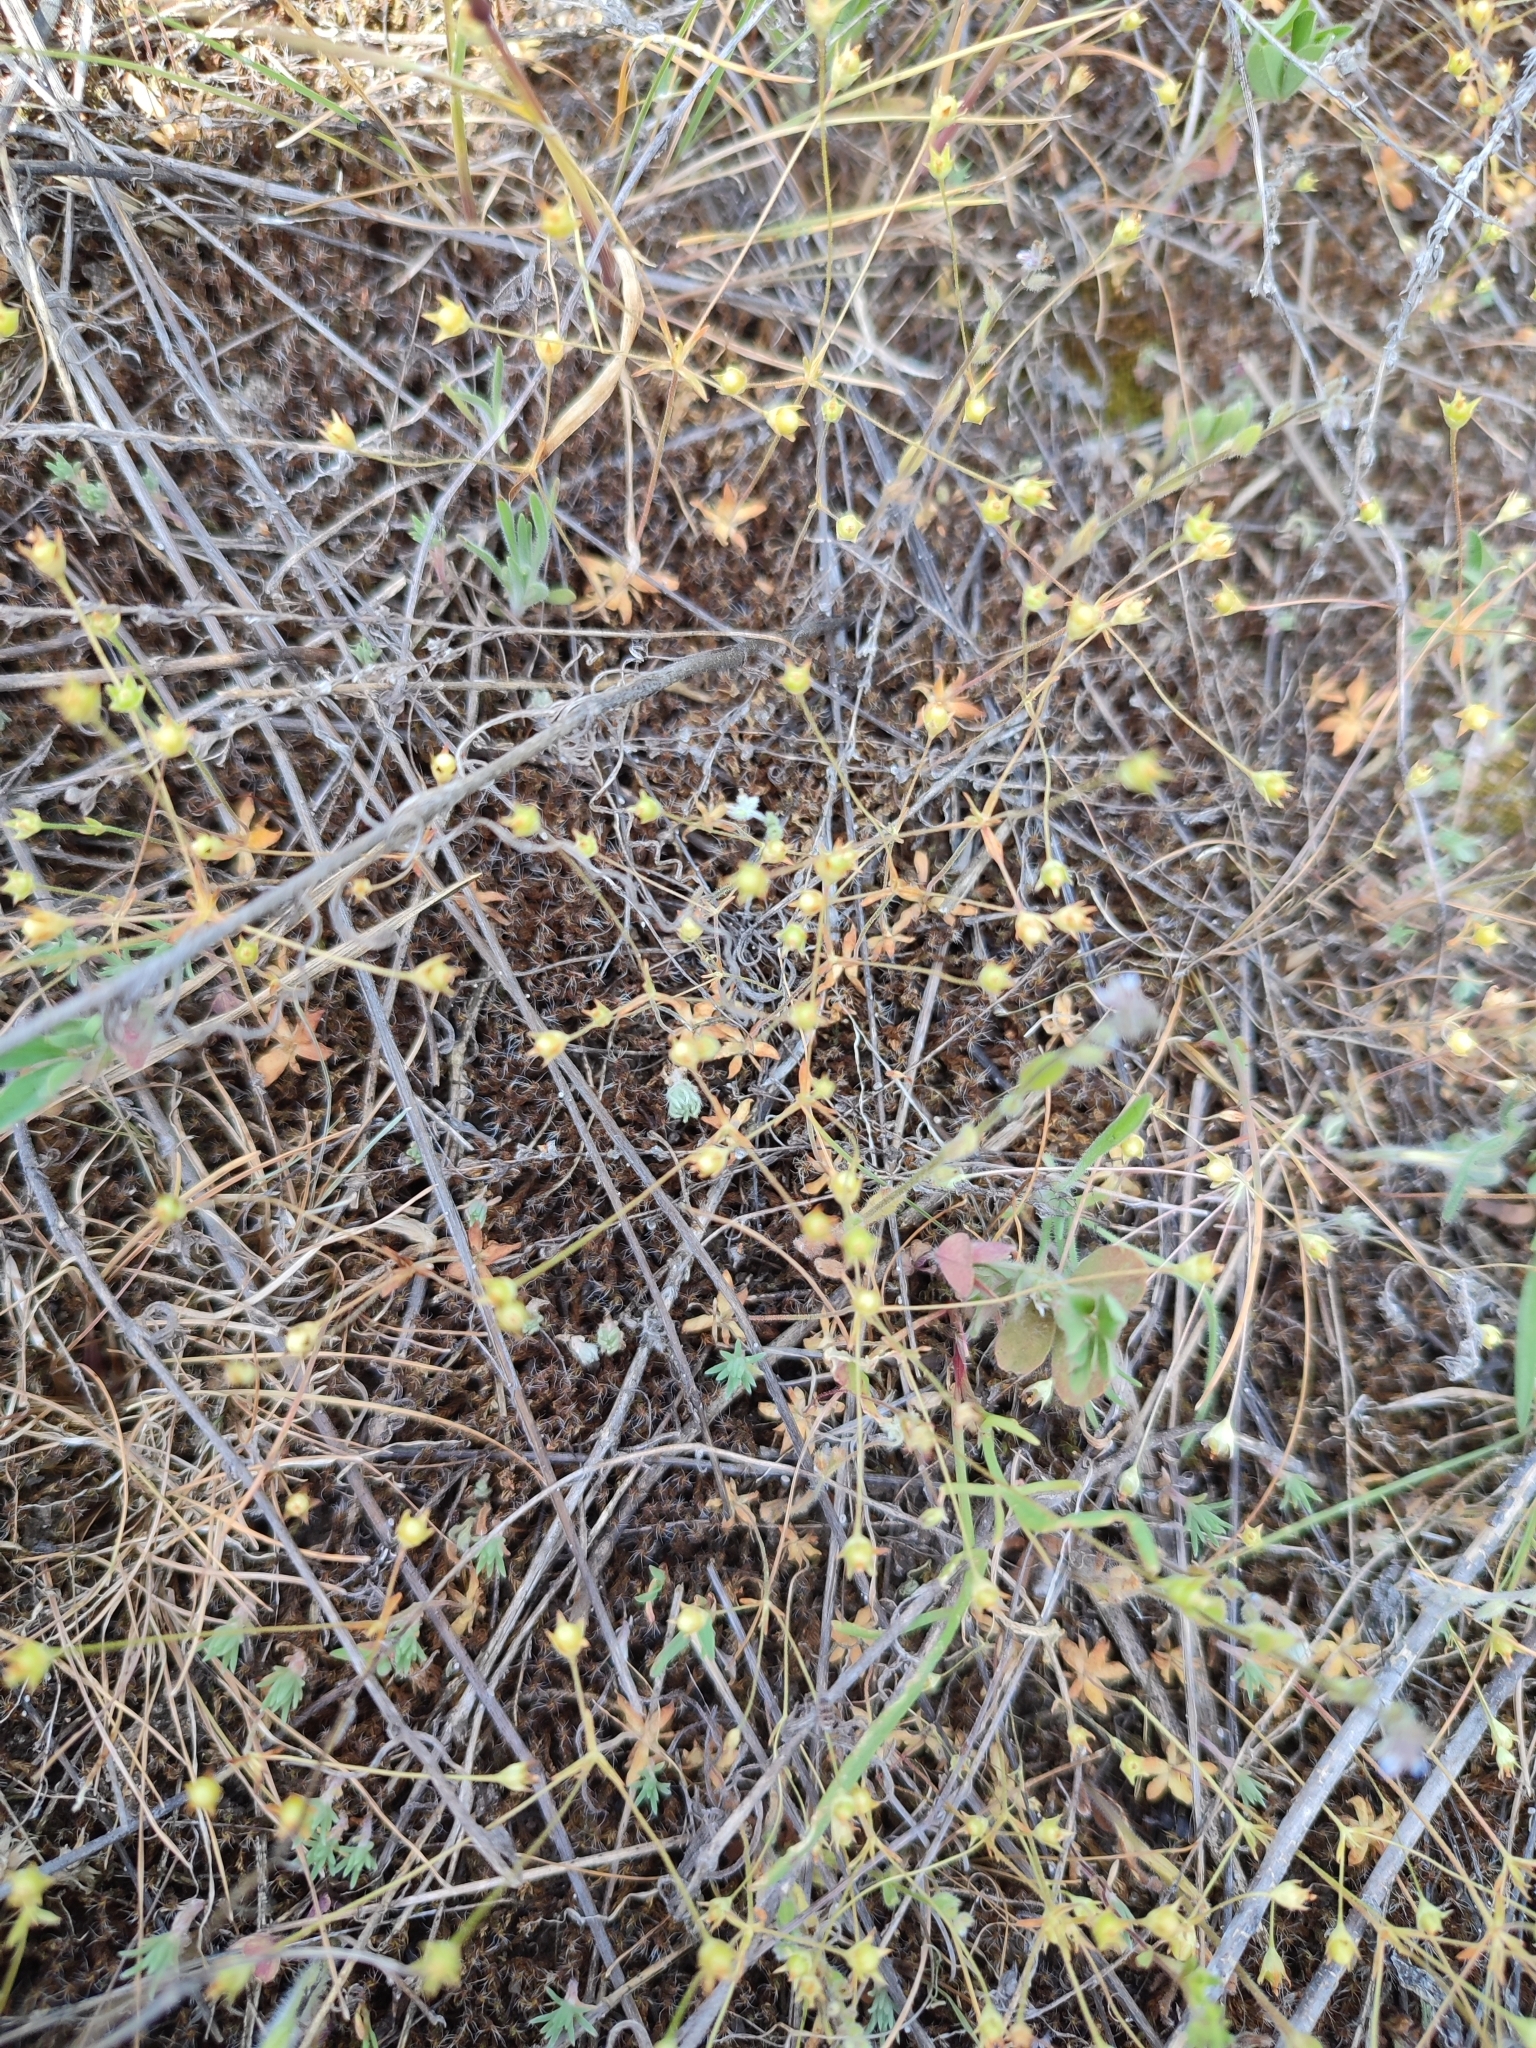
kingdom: Plantae
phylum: Tracheophyta
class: Magnoliopsida
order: Ericales
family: Primulaceae
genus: Androsace
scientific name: Androsace elongata
